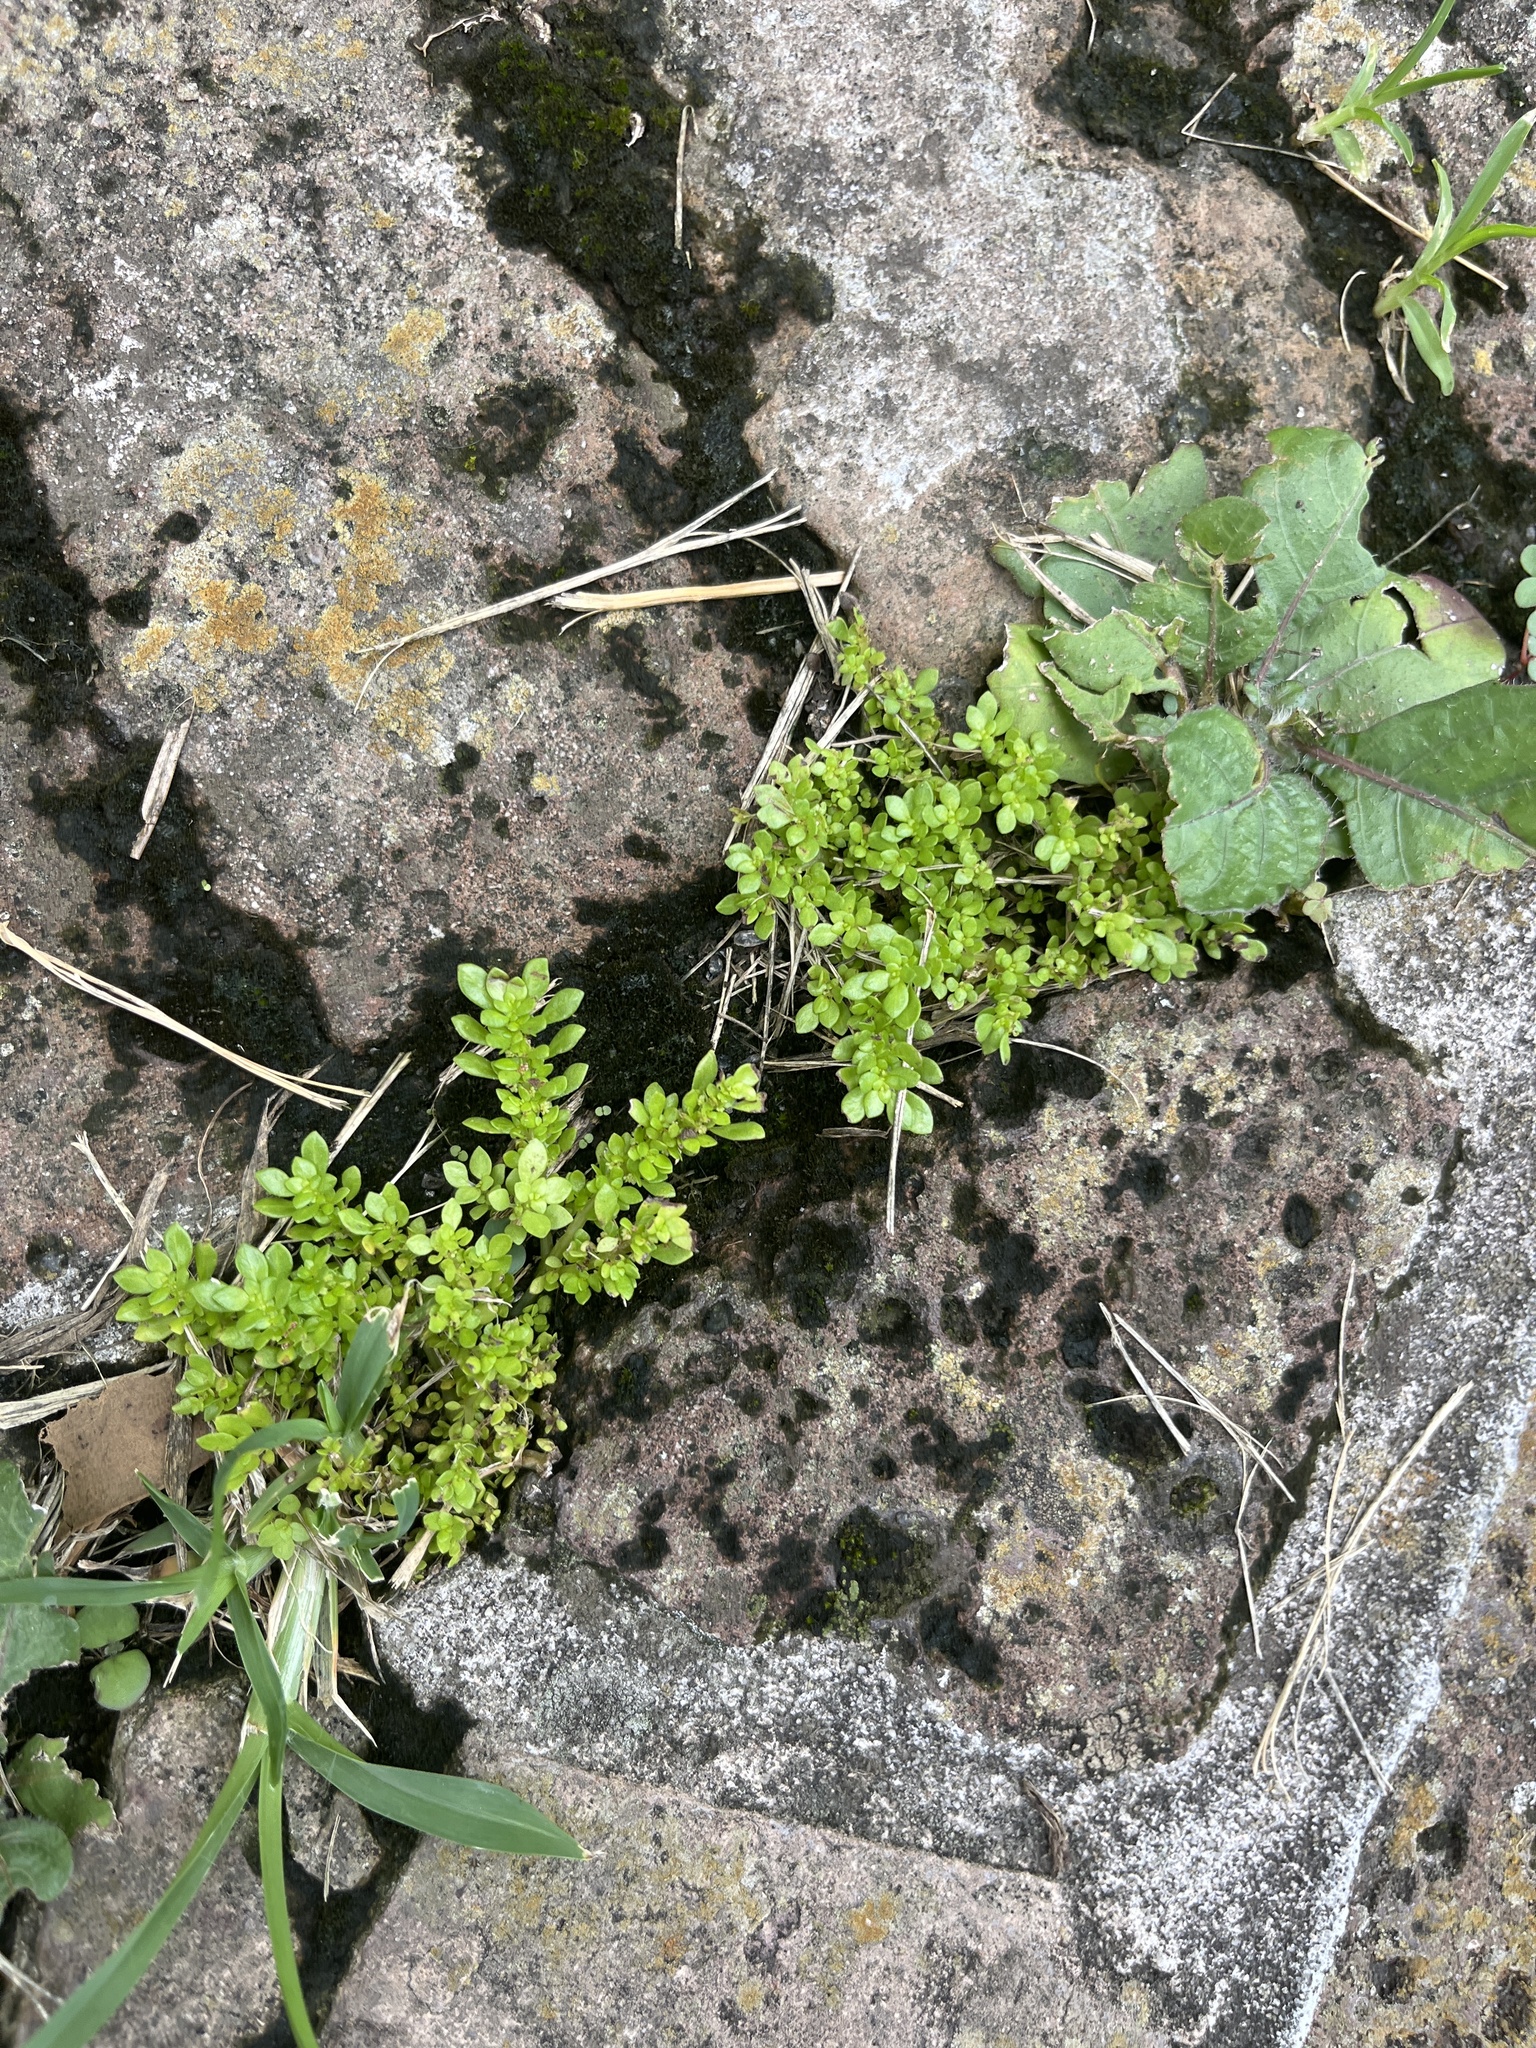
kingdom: Plantae
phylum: Tracheophyta
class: Magnoliopsida
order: Rosales
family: Urticaceae
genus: Pilea
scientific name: Pilea microphylla
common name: Artillery-plant
